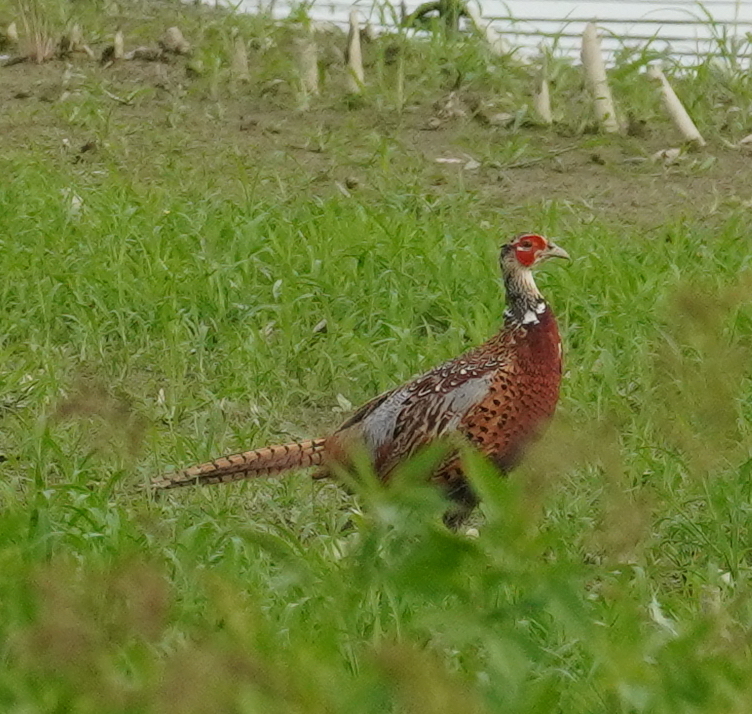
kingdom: Animalia
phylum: Chordata
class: Aves
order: Galliformes
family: Phasianidae
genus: Phasianus
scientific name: Phasianus colchicus
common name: Common pheasant
